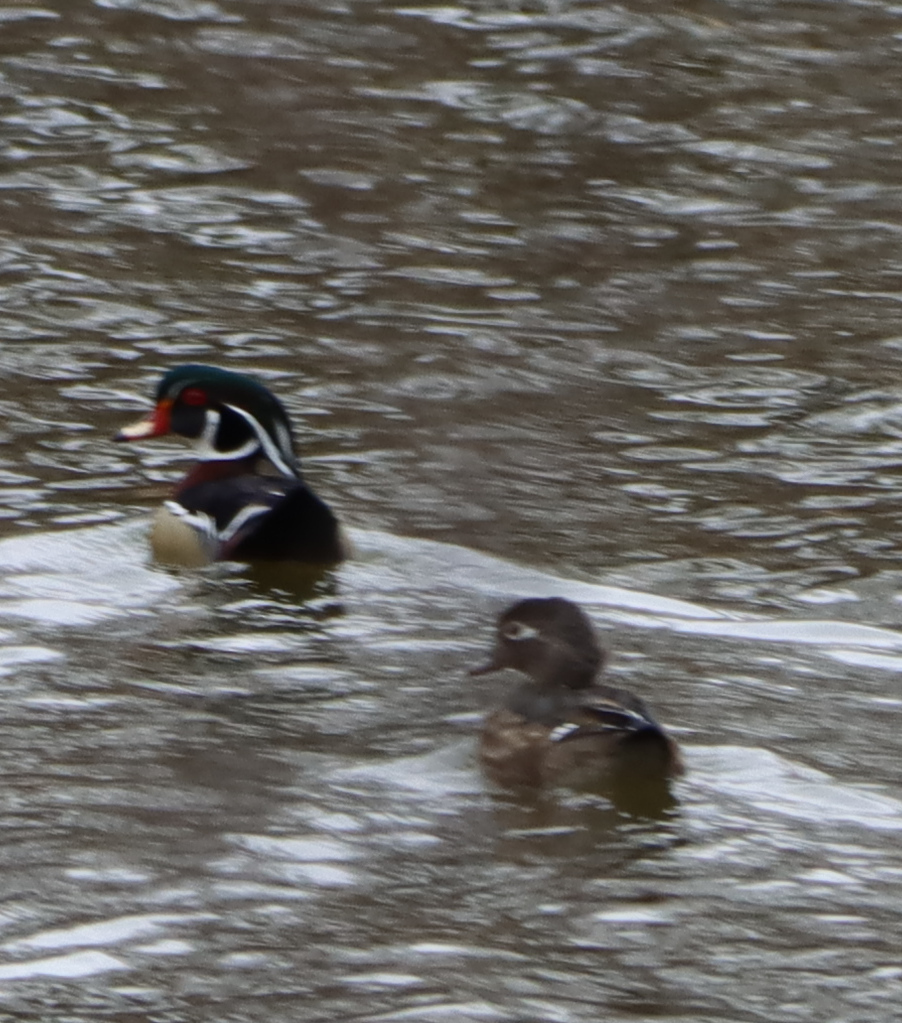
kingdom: Animalia
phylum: Chordata
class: Aves
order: Anseriformes
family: Anatidae
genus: Aix
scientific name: Aix sponsa
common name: Wood duck
